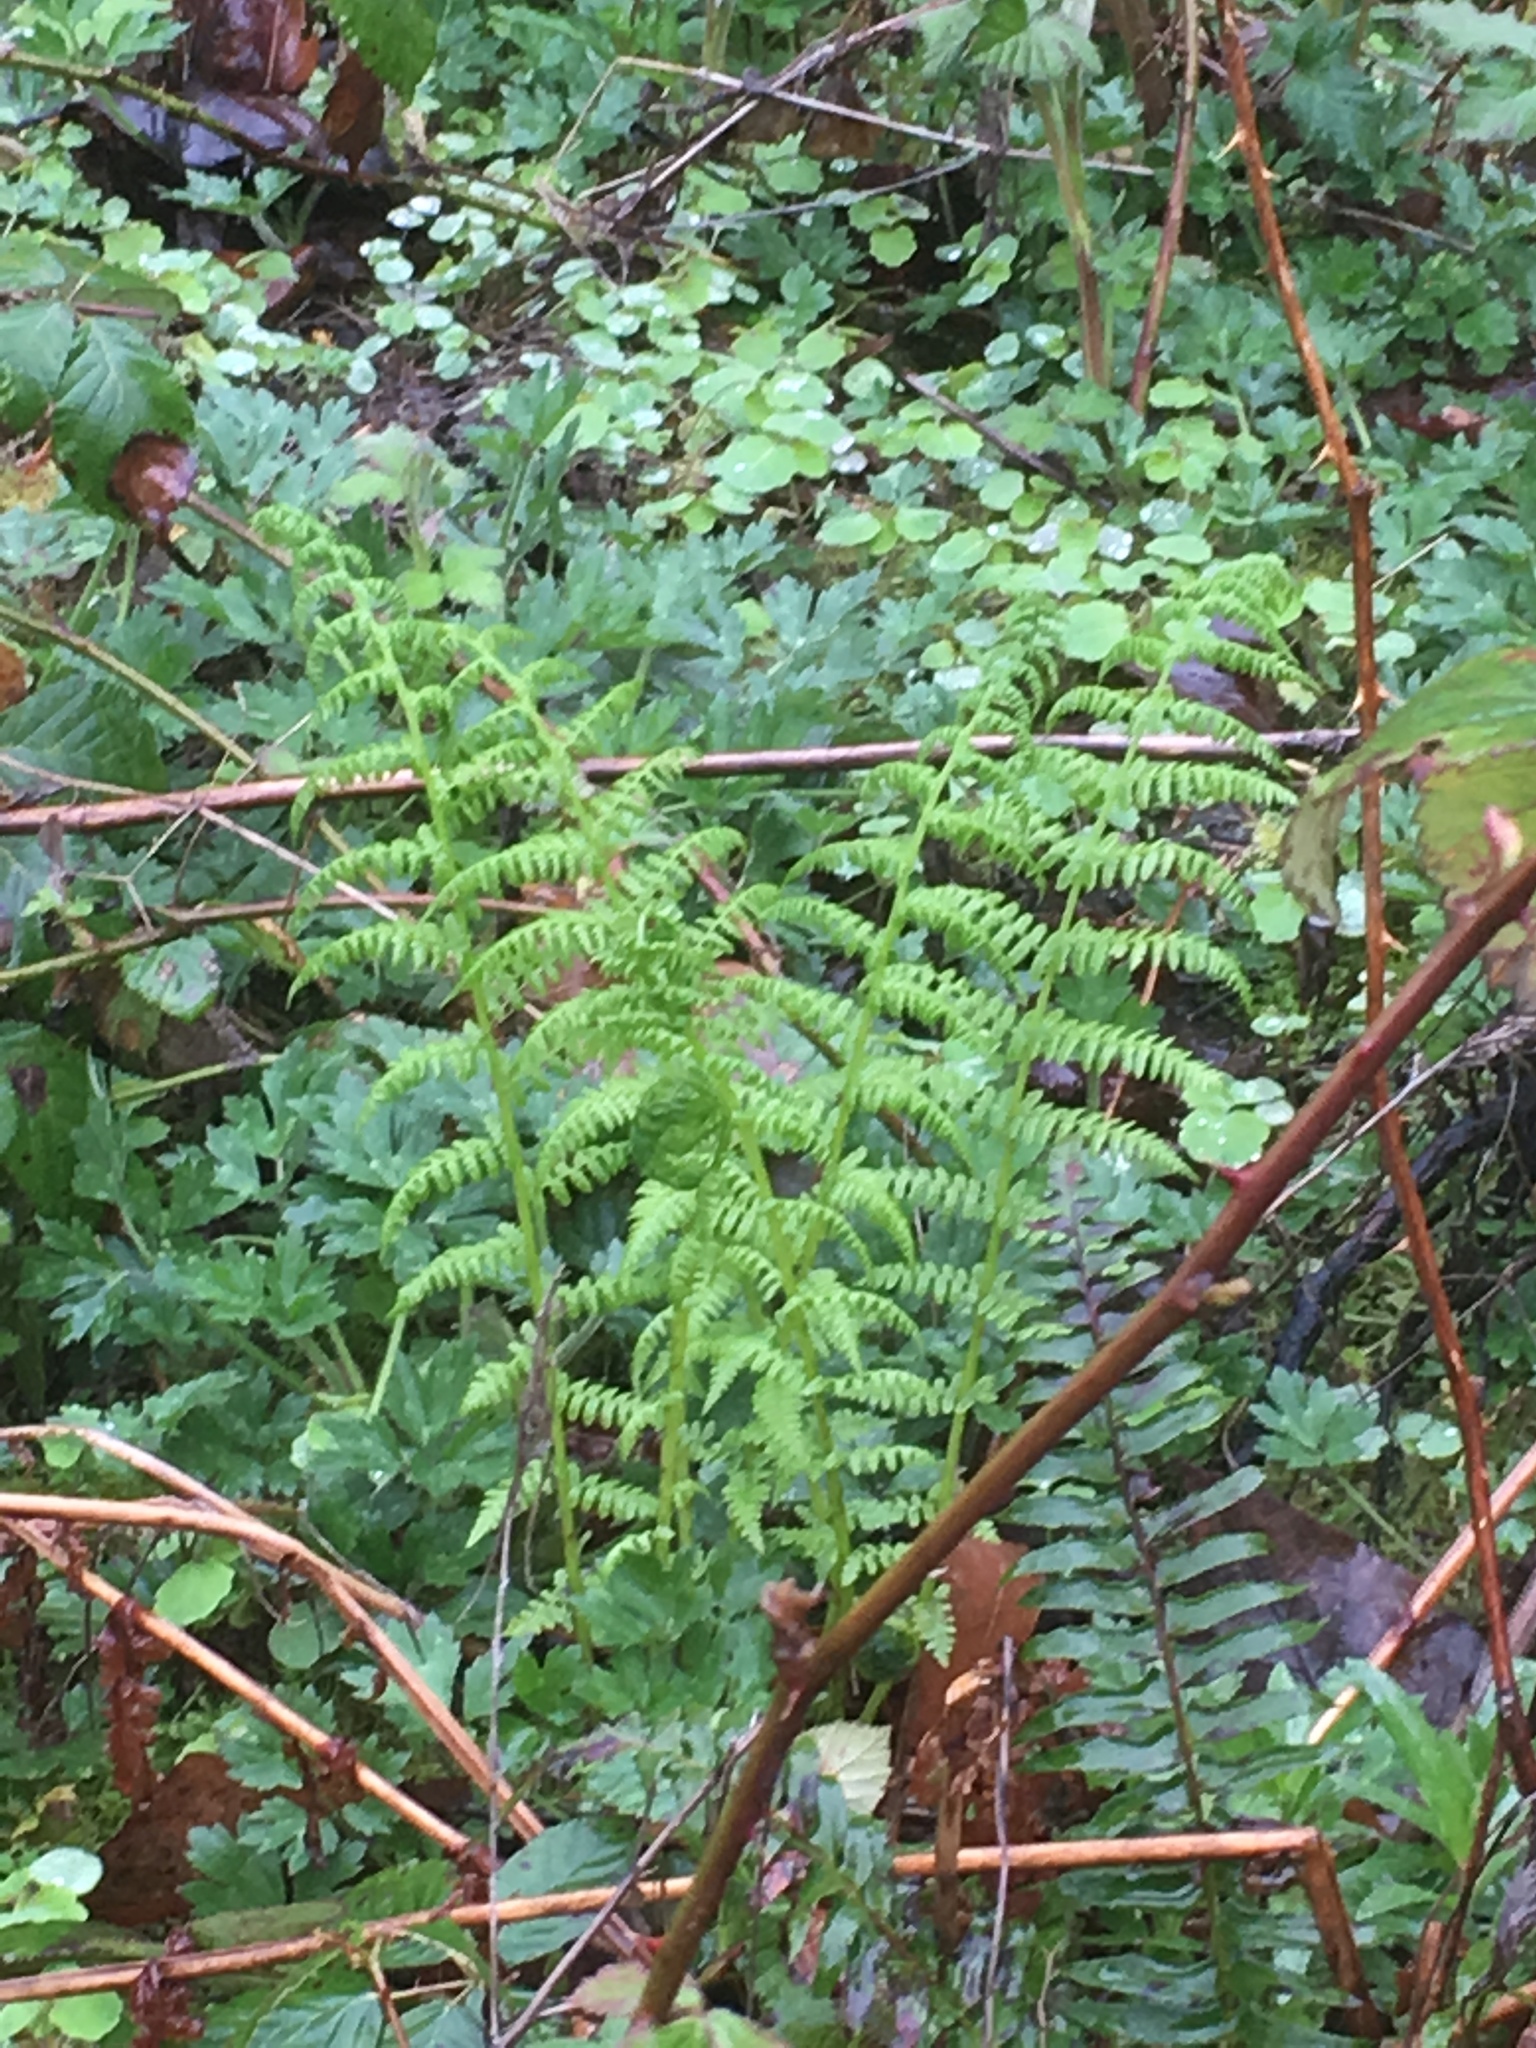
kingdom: Plantae
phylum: Tracheophyta
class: Polypodiopsida
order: Polypodiales
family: Athyriaceae
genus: Athyrium
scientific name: Athyrium filix-femina
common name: Lady fern
